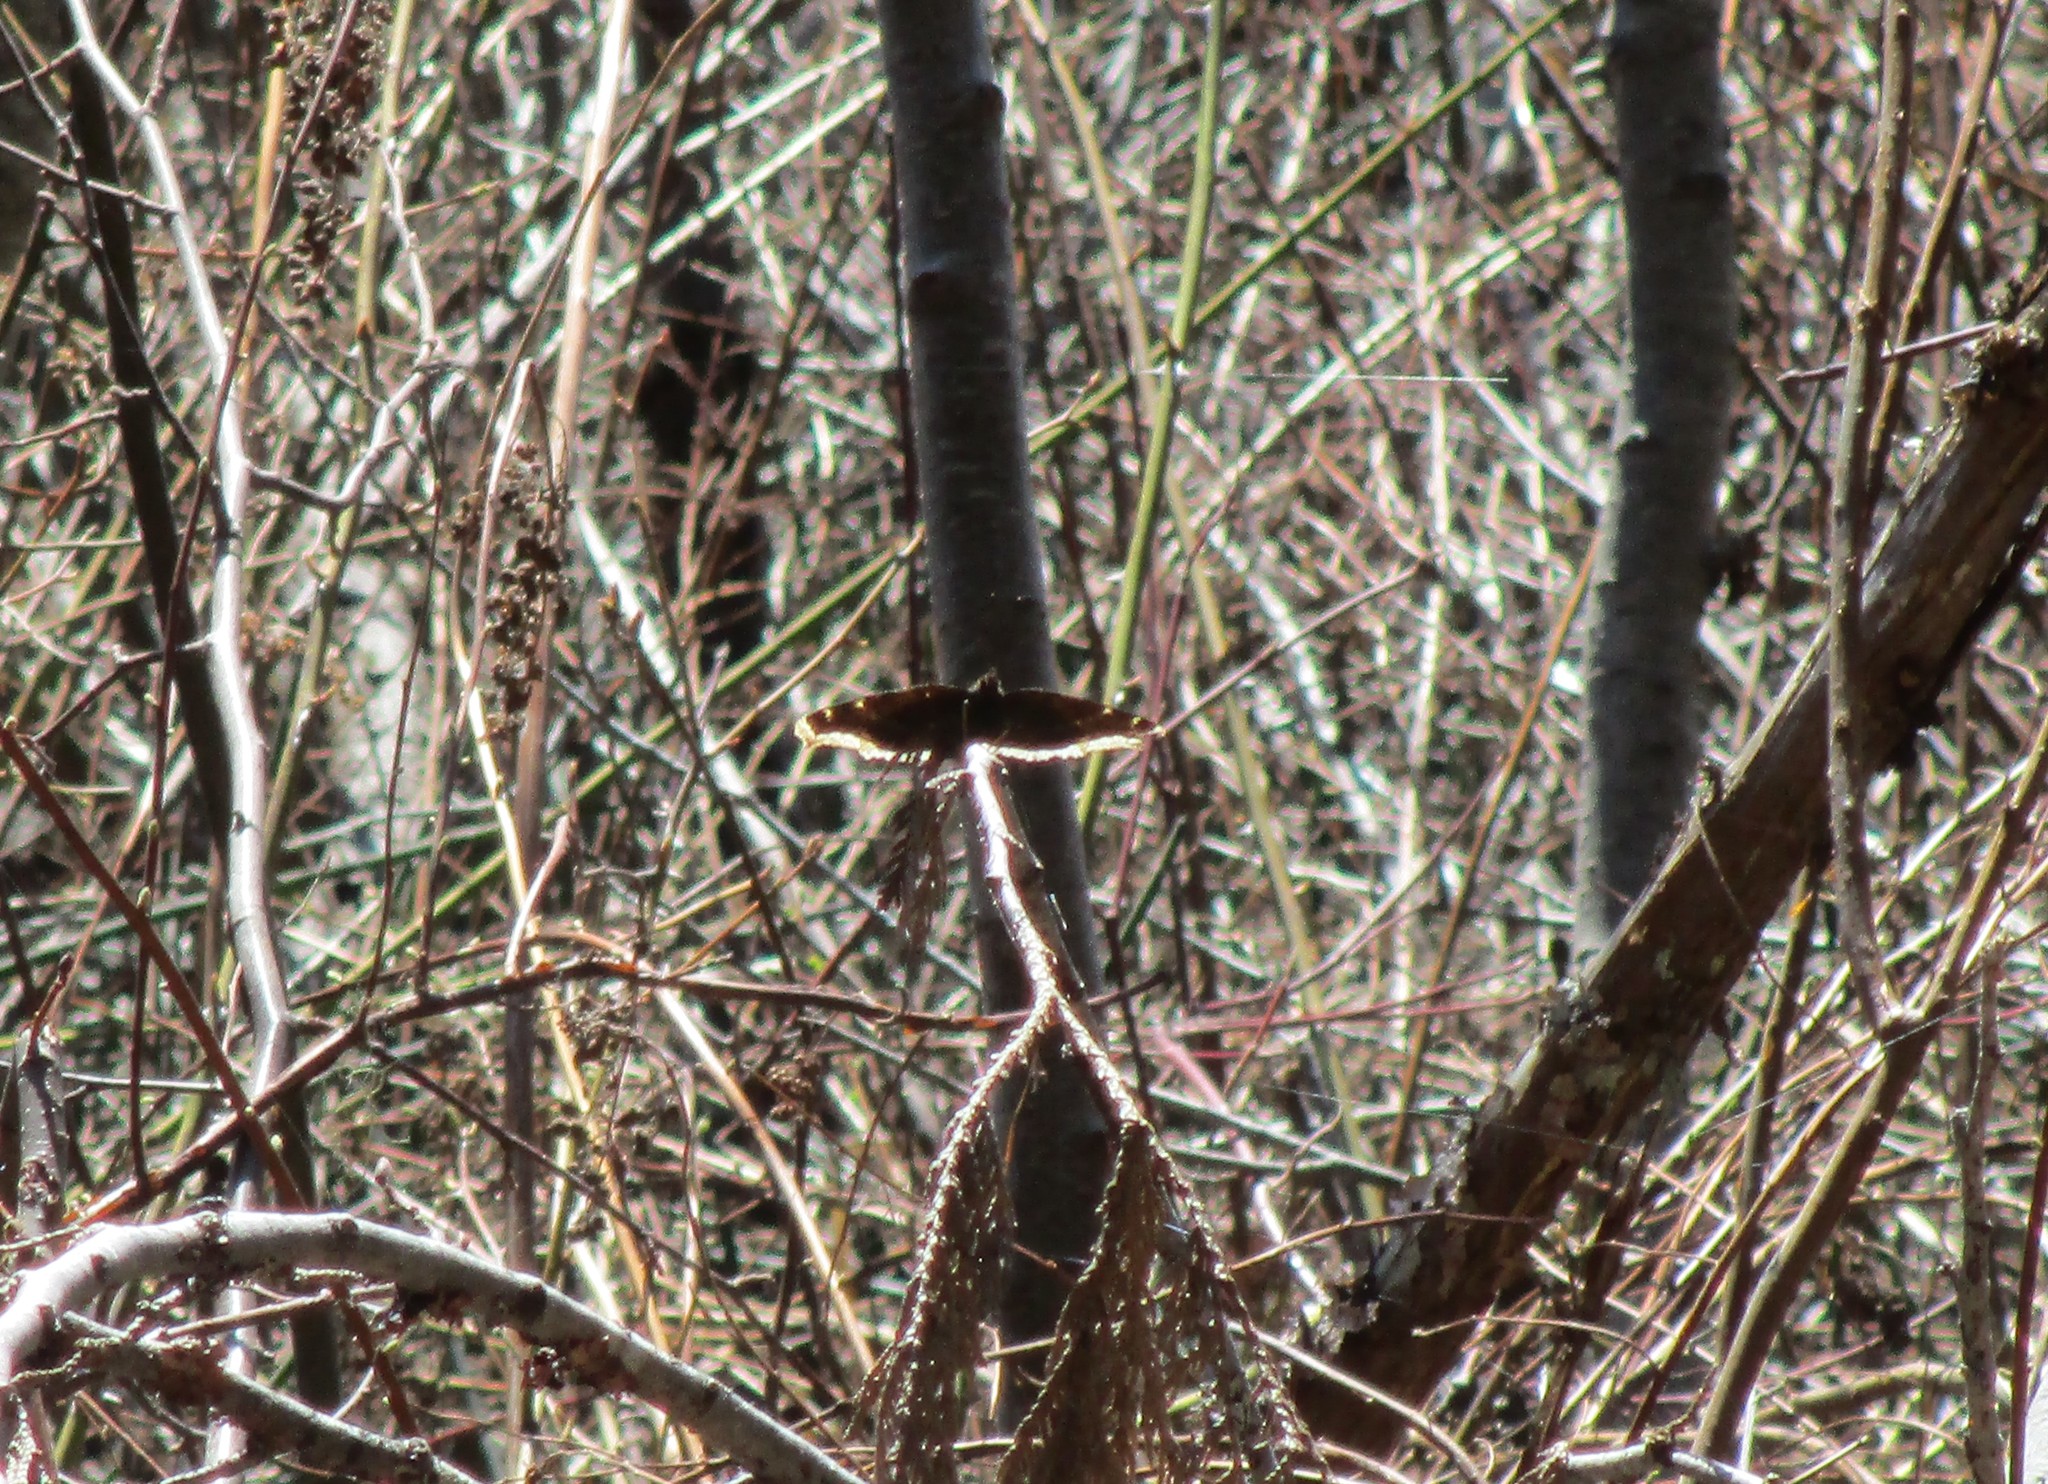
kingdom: Animalia
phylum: Arthropoda
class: Insecta
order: Lepidoptera
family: Nymphalidae
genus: Nymphalis
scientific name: Nymphalis antiopa
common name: Camberwell beauty
